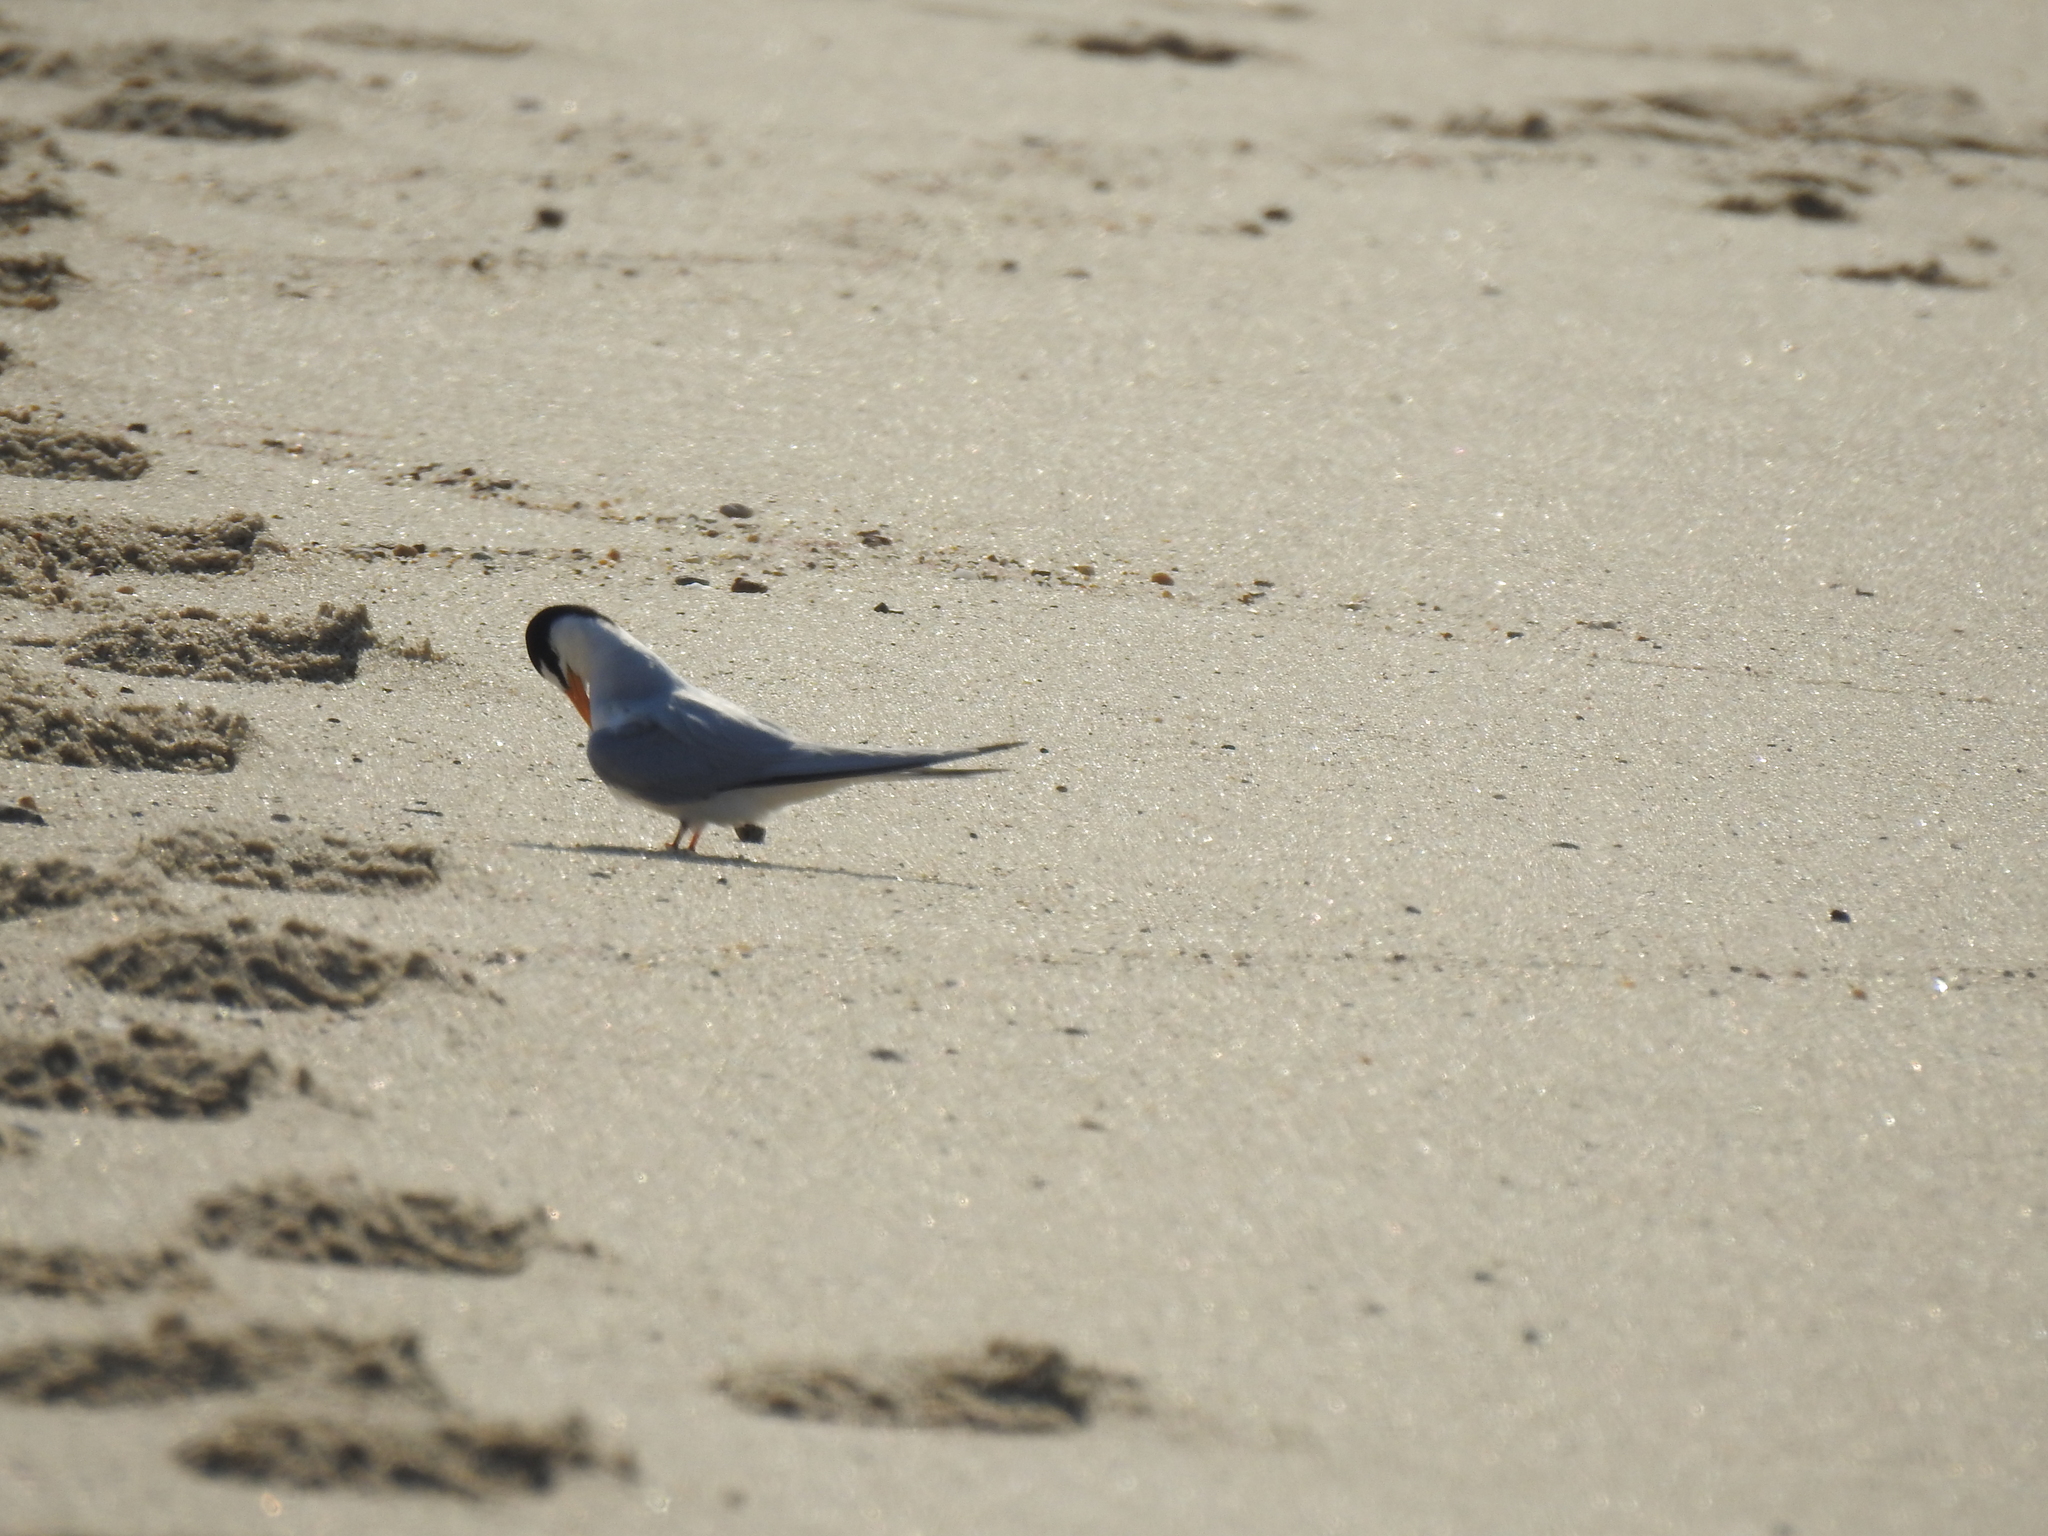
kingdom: Animalia
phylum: Chordata
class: Aves
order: Charadriiformes
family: Laridae
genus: Sternula
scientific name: Sternula antillarum
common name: Least tern
